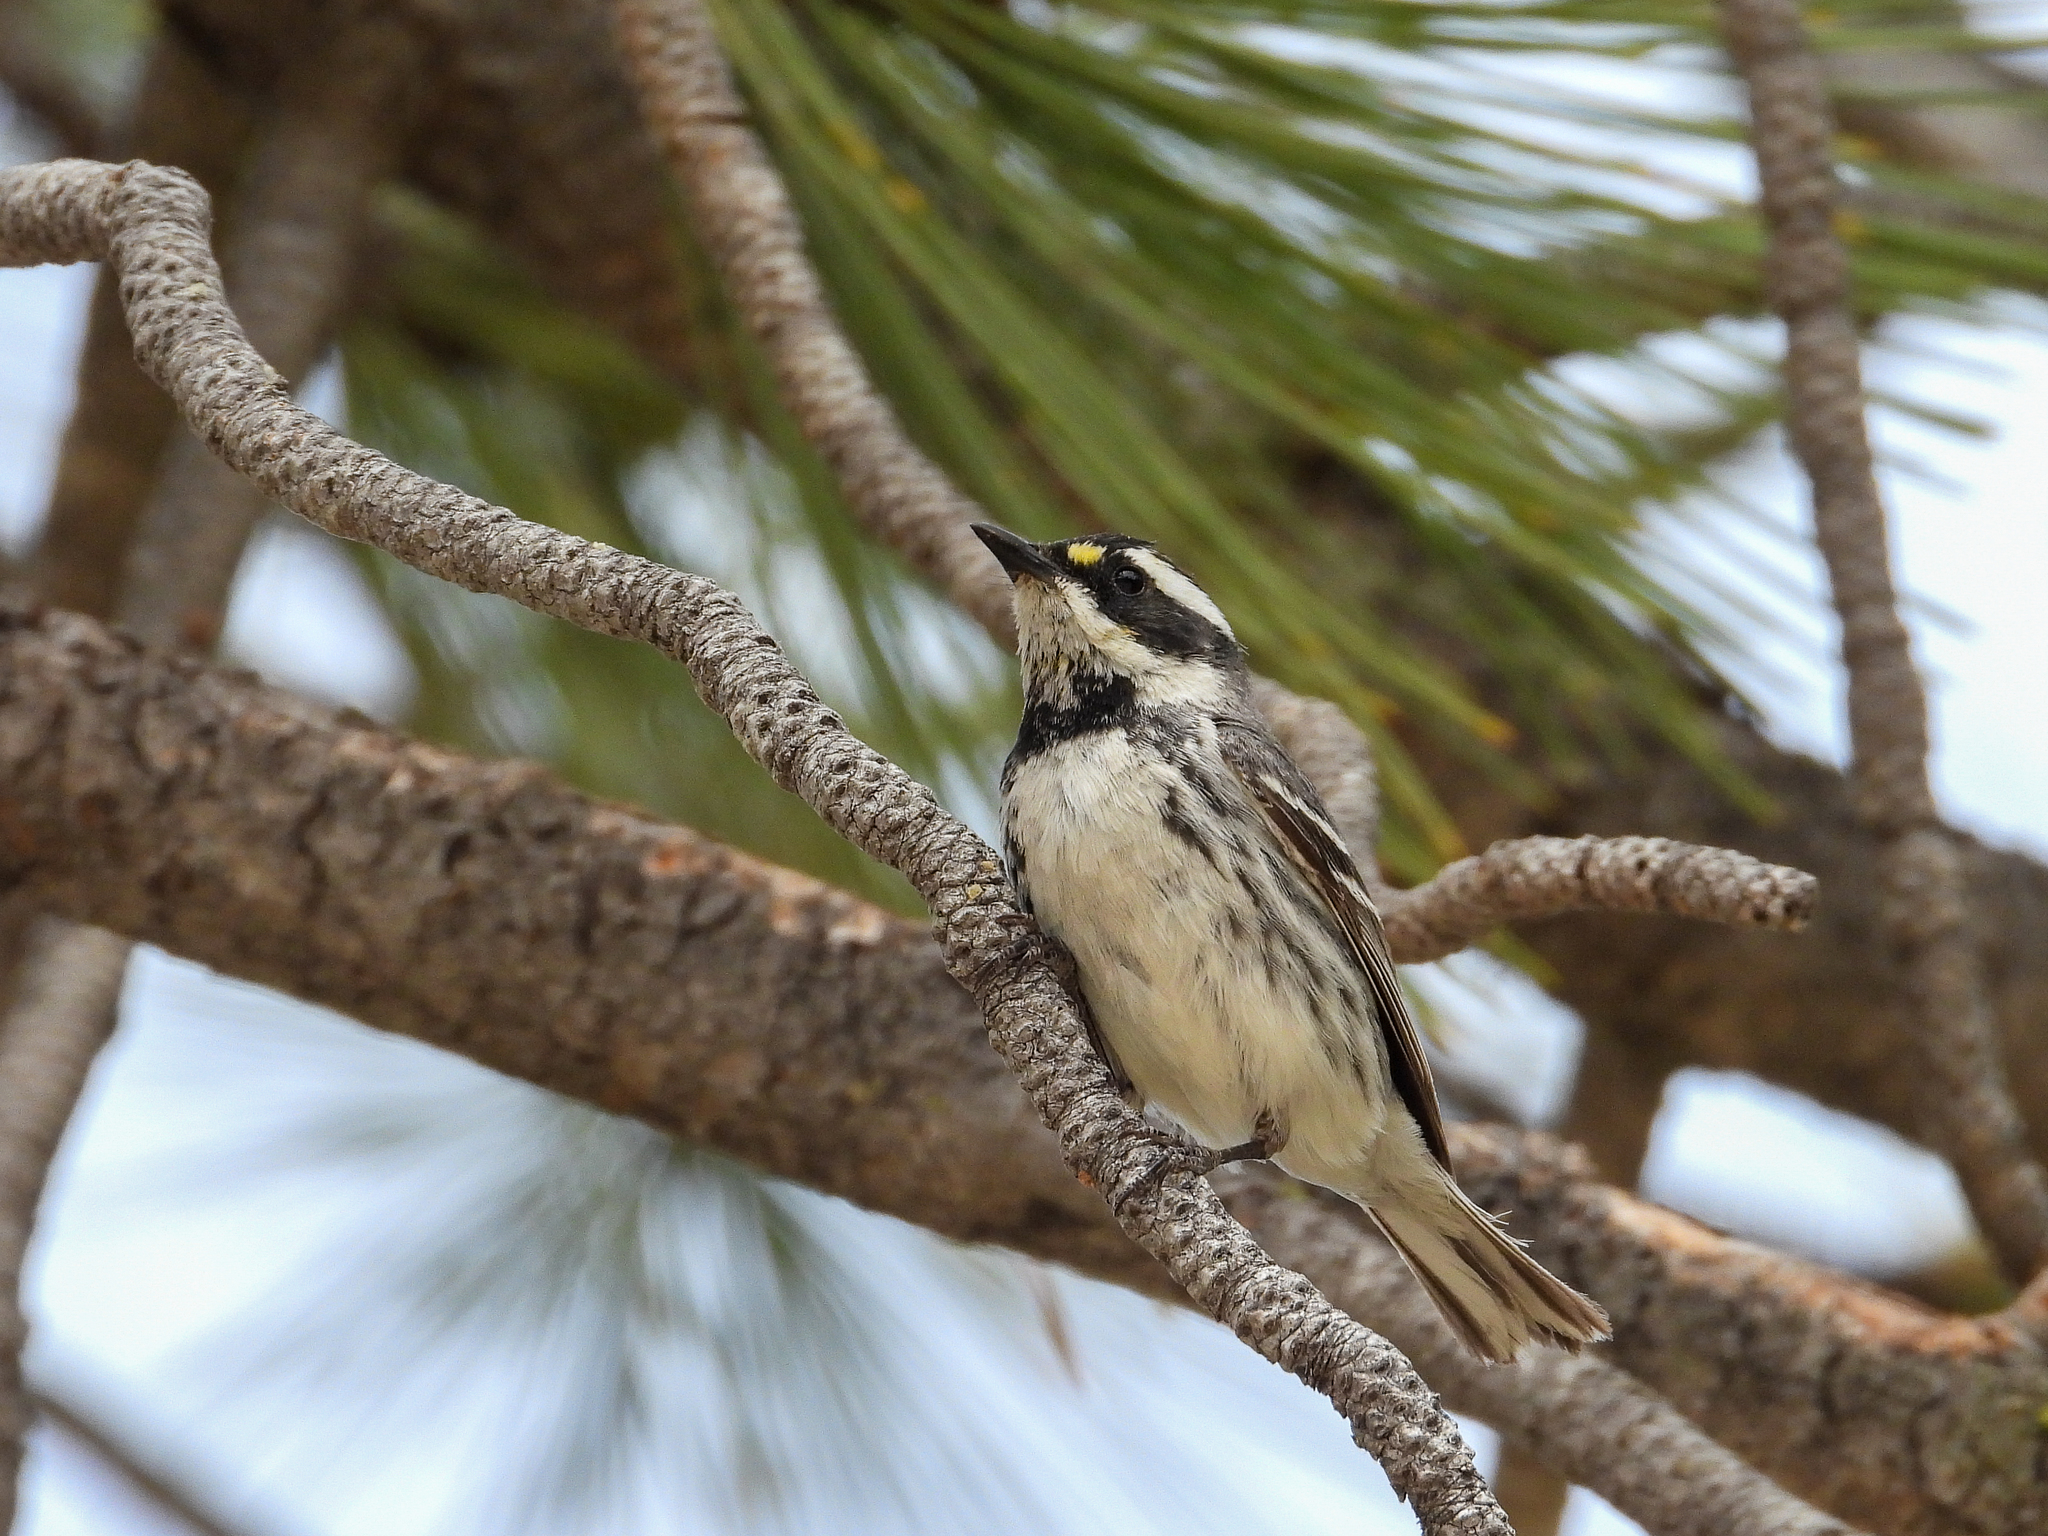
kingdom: Animalia
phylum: Chordata
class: Aves
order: Passeriformes
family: Parulidae
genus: Setophaga
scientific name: Setophaga nigrescens
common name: Black-throated gray warbler
